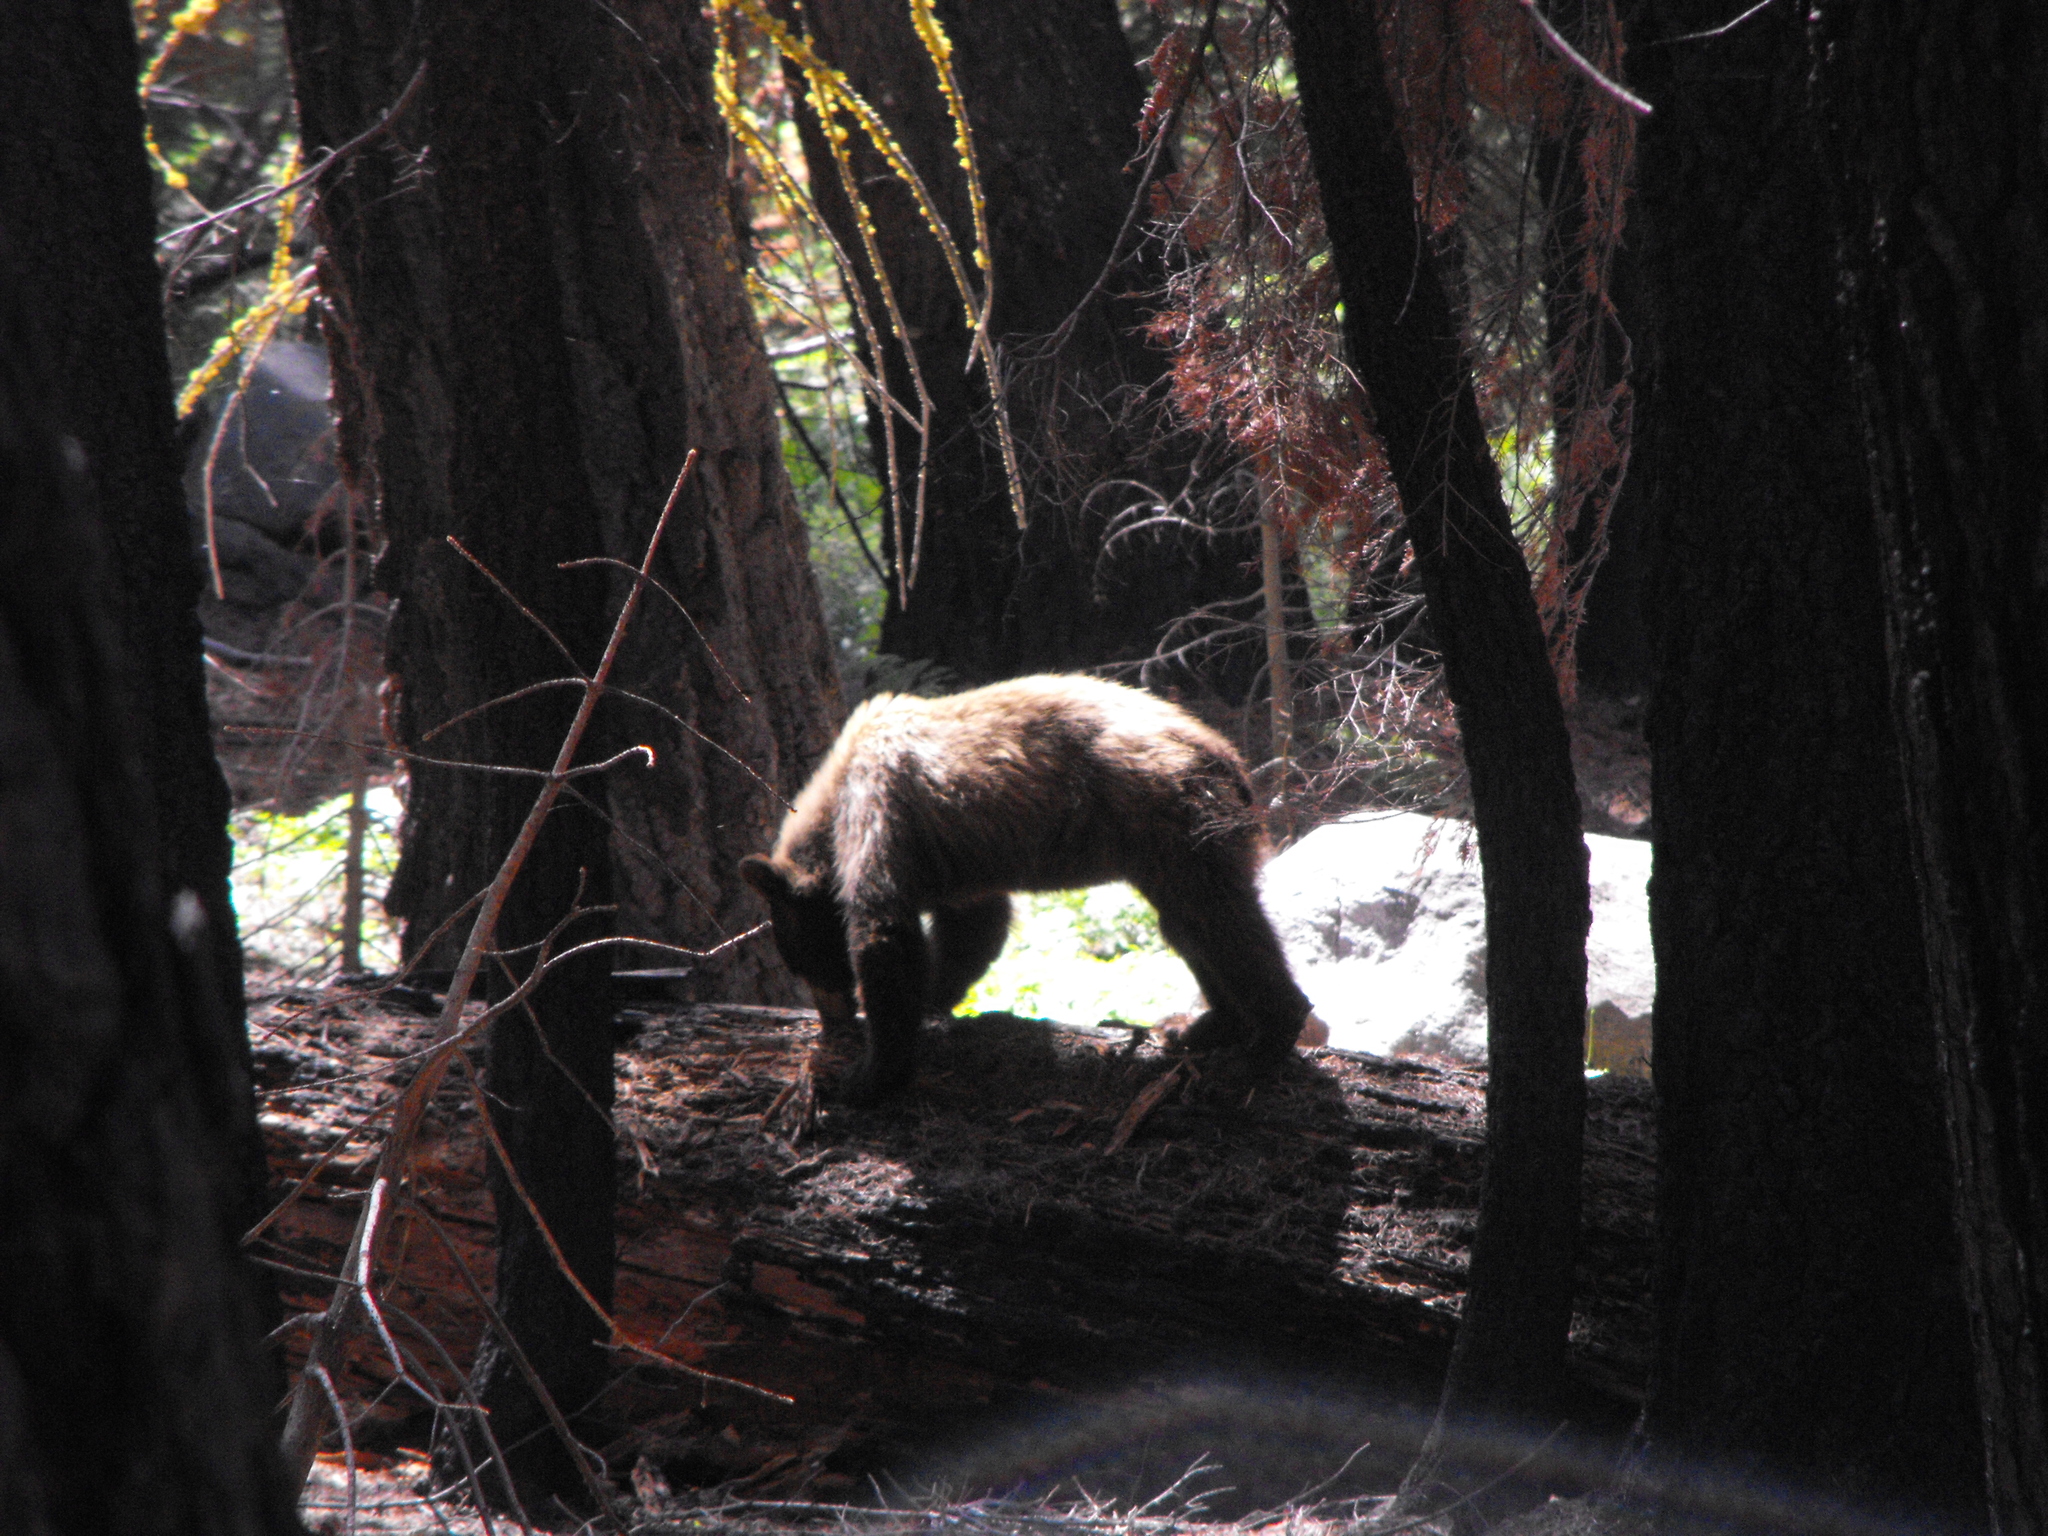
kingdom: Animalia
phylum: Chordata
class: Mammalia
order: Carnivora
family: Ursidae
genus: Ursus
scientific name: Ursus americanus
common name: American black bear
